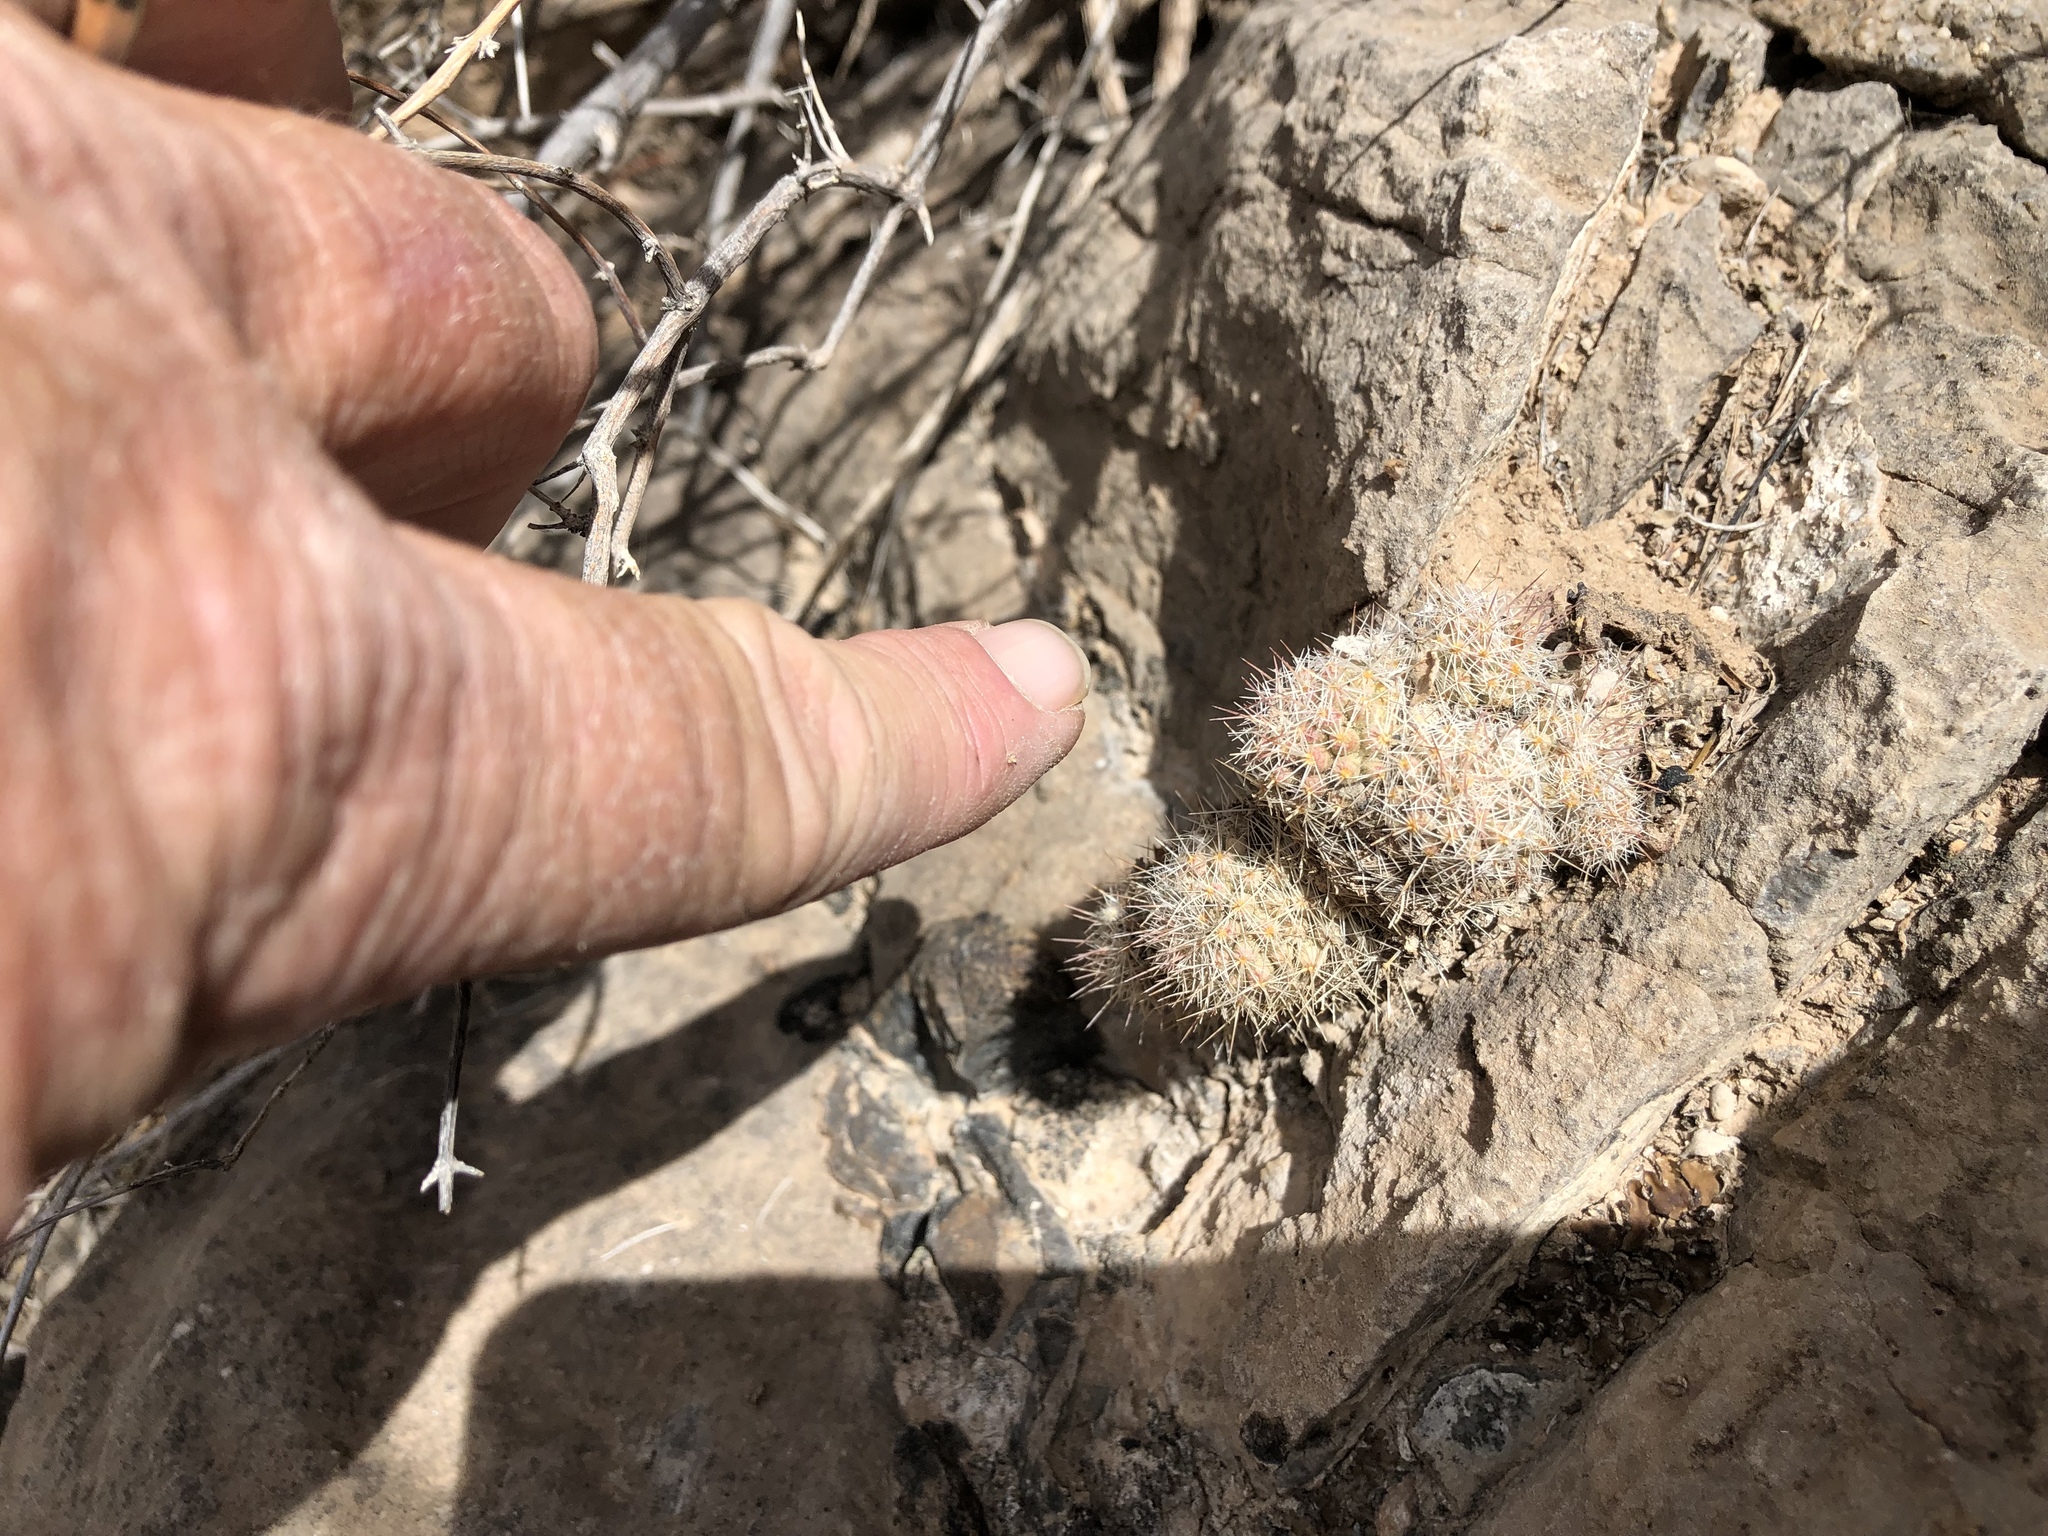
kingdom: Plantae
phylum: Tracheophyta
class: Magnoliopsida
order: Caryophyllales
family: Cactaceae
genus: Pelecyphora
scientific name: Pelecyphora tuberculosa
